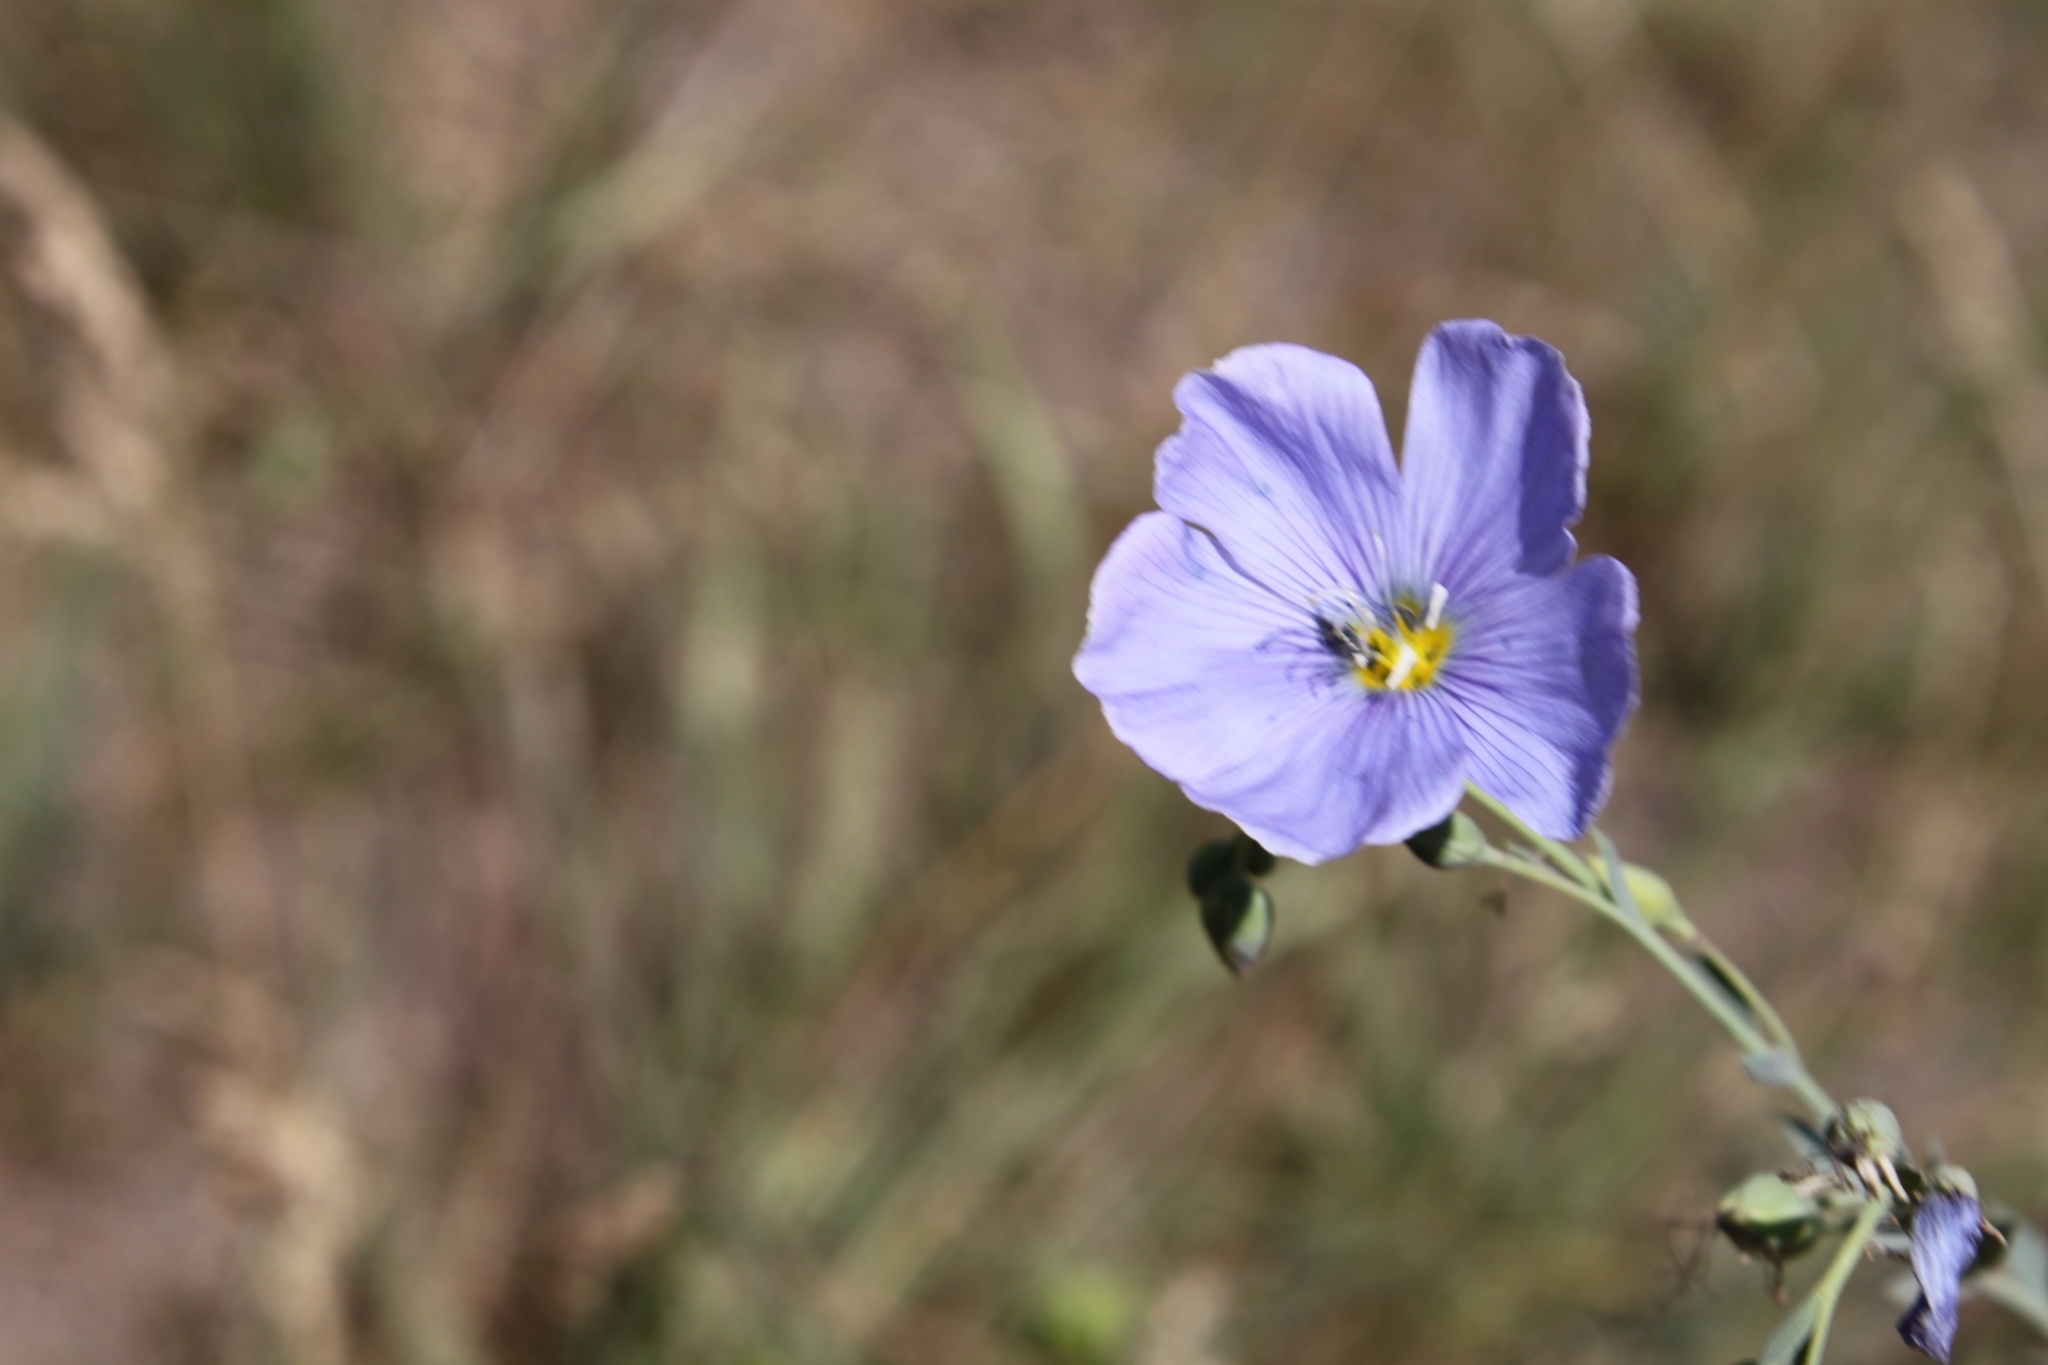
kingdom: Plantae
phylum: Tracheophyta
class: Magnoliopsida
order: Malpighiales
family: Linaceae
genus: Linum
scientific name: Linum lewisii
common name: Prairie flax
